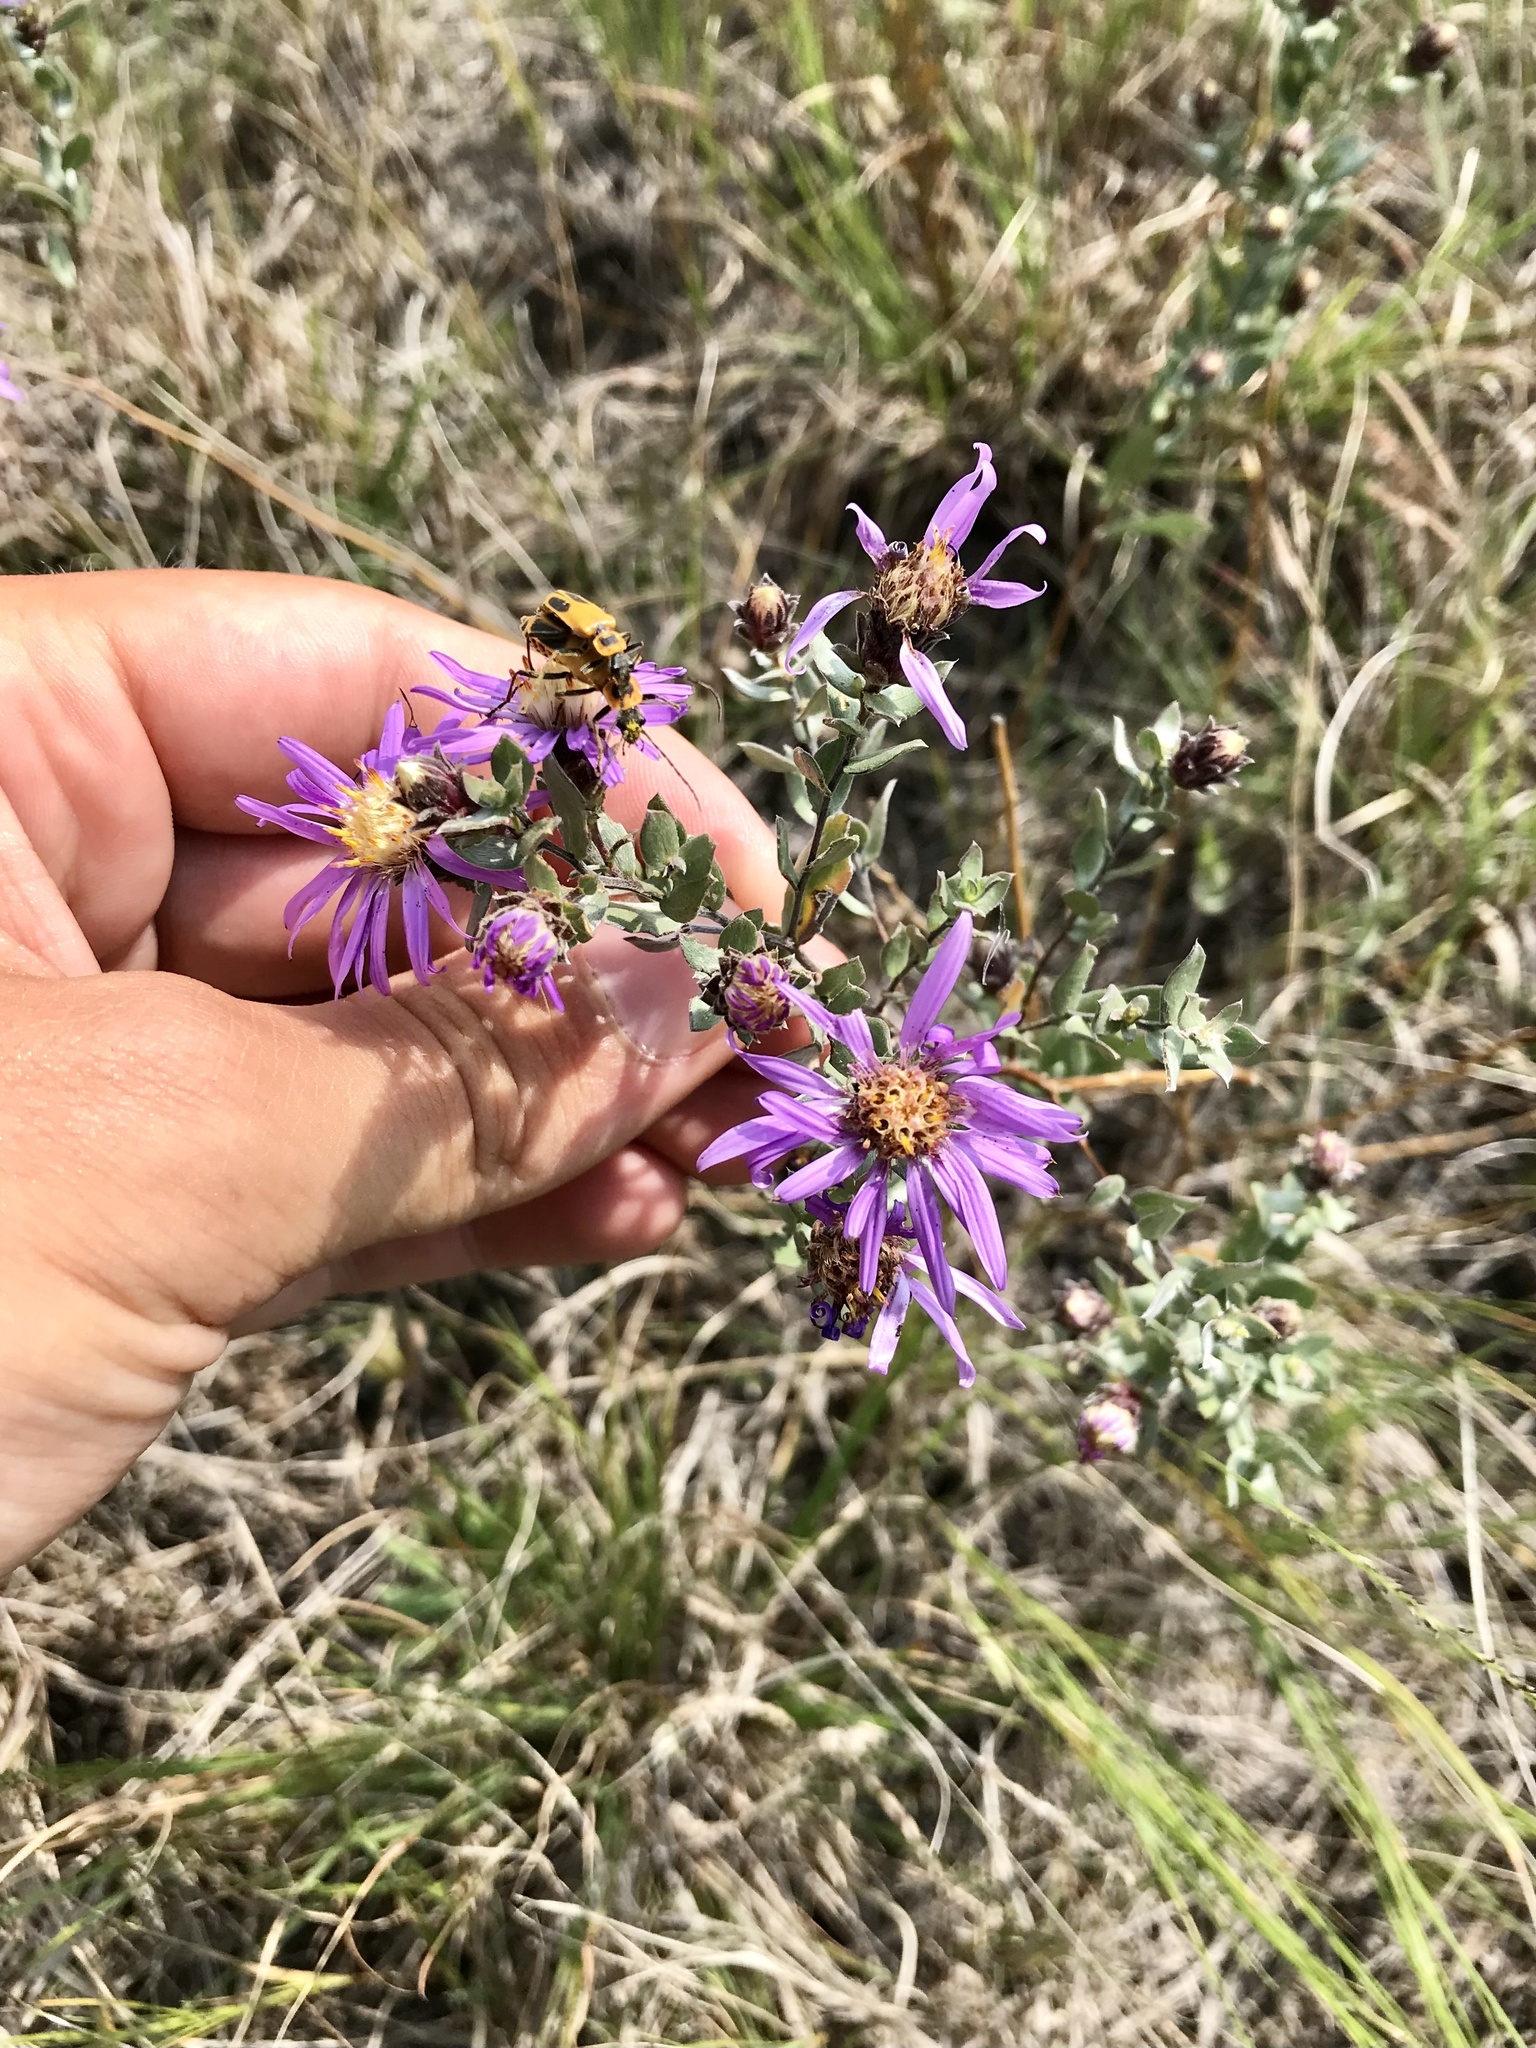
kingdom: Plantae
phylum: Tracheophyta
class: Magnoliopsida
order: Asterales
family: Asteraceae
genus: Symphyotrichum
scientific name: Symphyotrichum sericeum
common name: Silky aster
